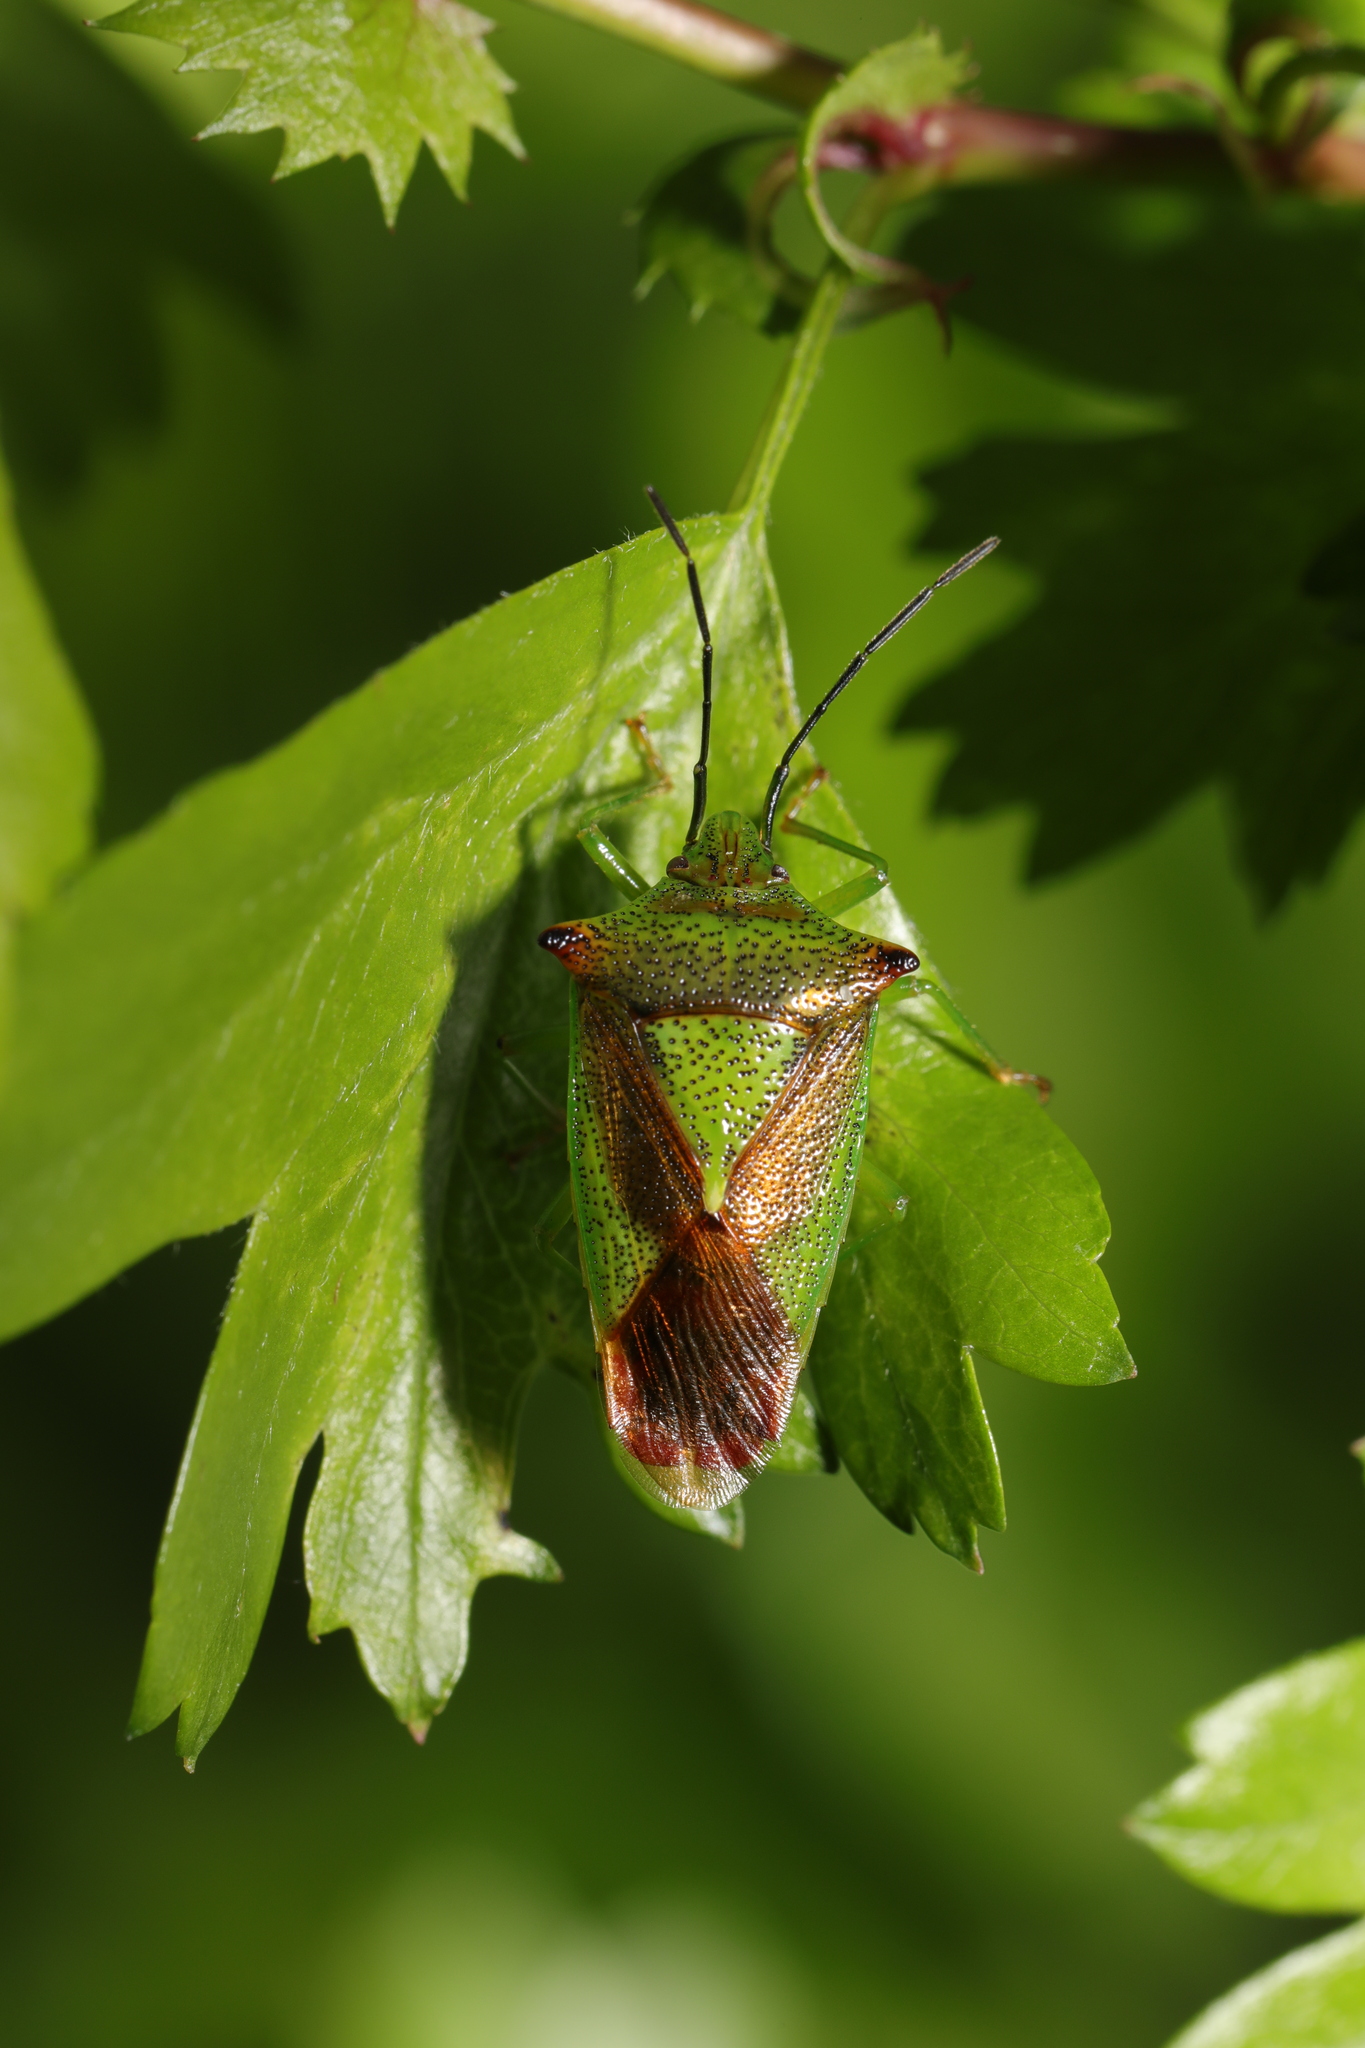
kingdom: Animalia
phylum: Arthropoda
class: Insecta
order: Hemiptera
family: Acanthosomatidae
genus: Acanthosoma
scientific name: Acanthosoma haemorrhoidale
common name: Hawthorn shieldbug
